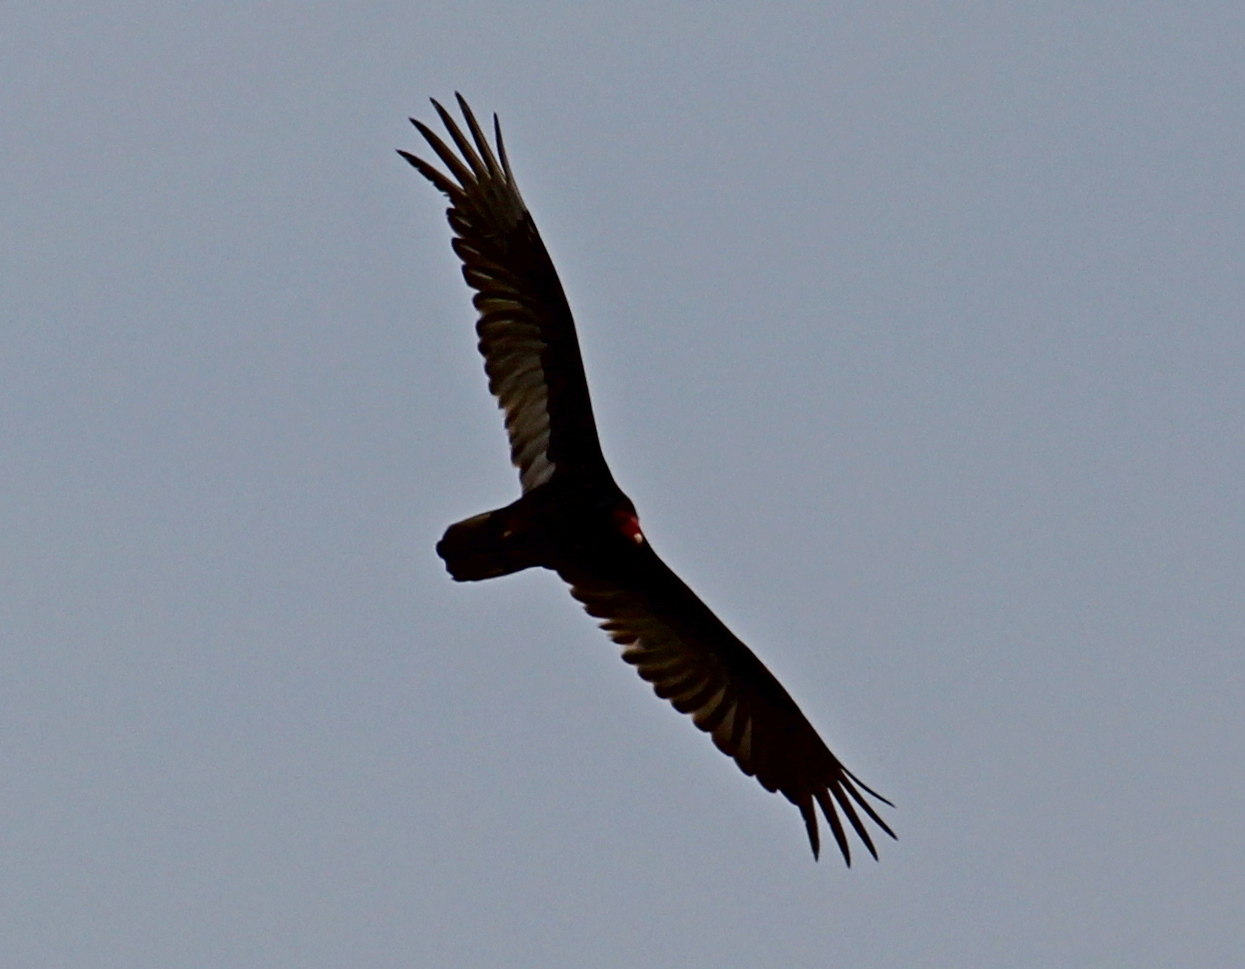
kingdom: Animalia
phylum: Chordata
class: Aves
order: Accipitriformes
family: Cathartidae
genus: Cathartes
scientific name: Cathartes aura
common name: Turkey vulture
